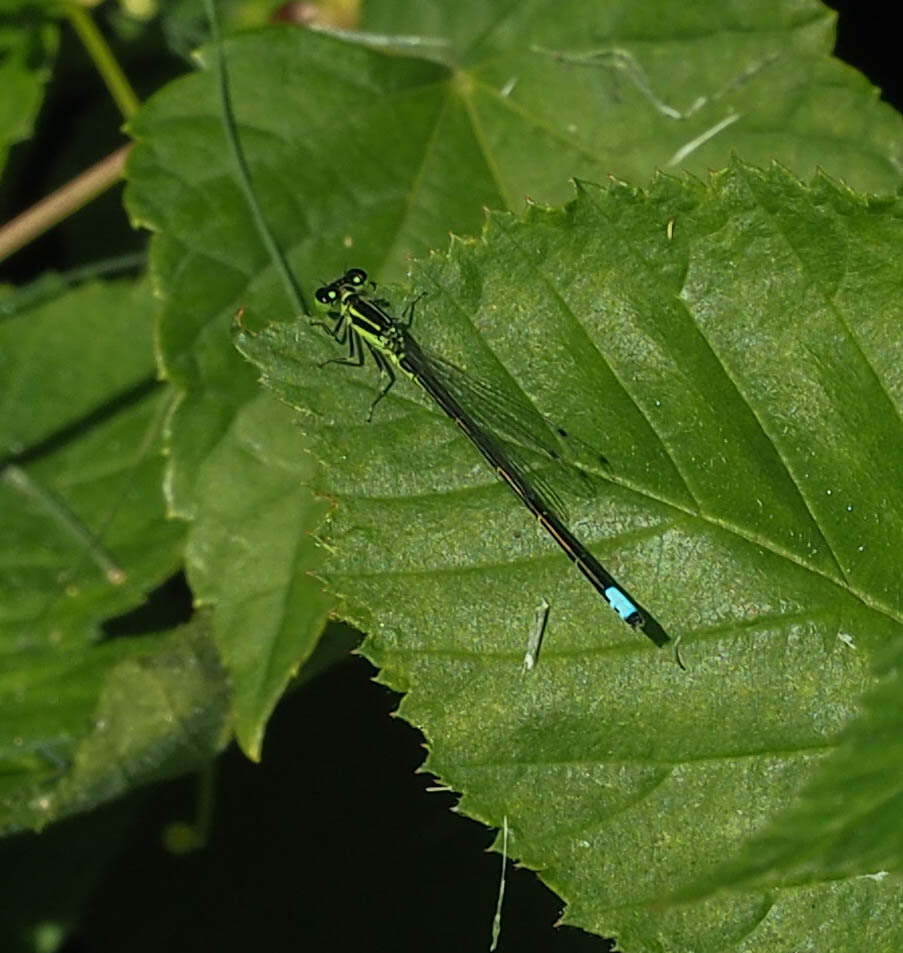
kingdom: Animalia
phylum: Arthropoda
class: Insecta
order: Odonata
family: Coenagrionidae
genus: Ischnura
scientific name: Ischnura verticalis
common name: Eastern forktail
